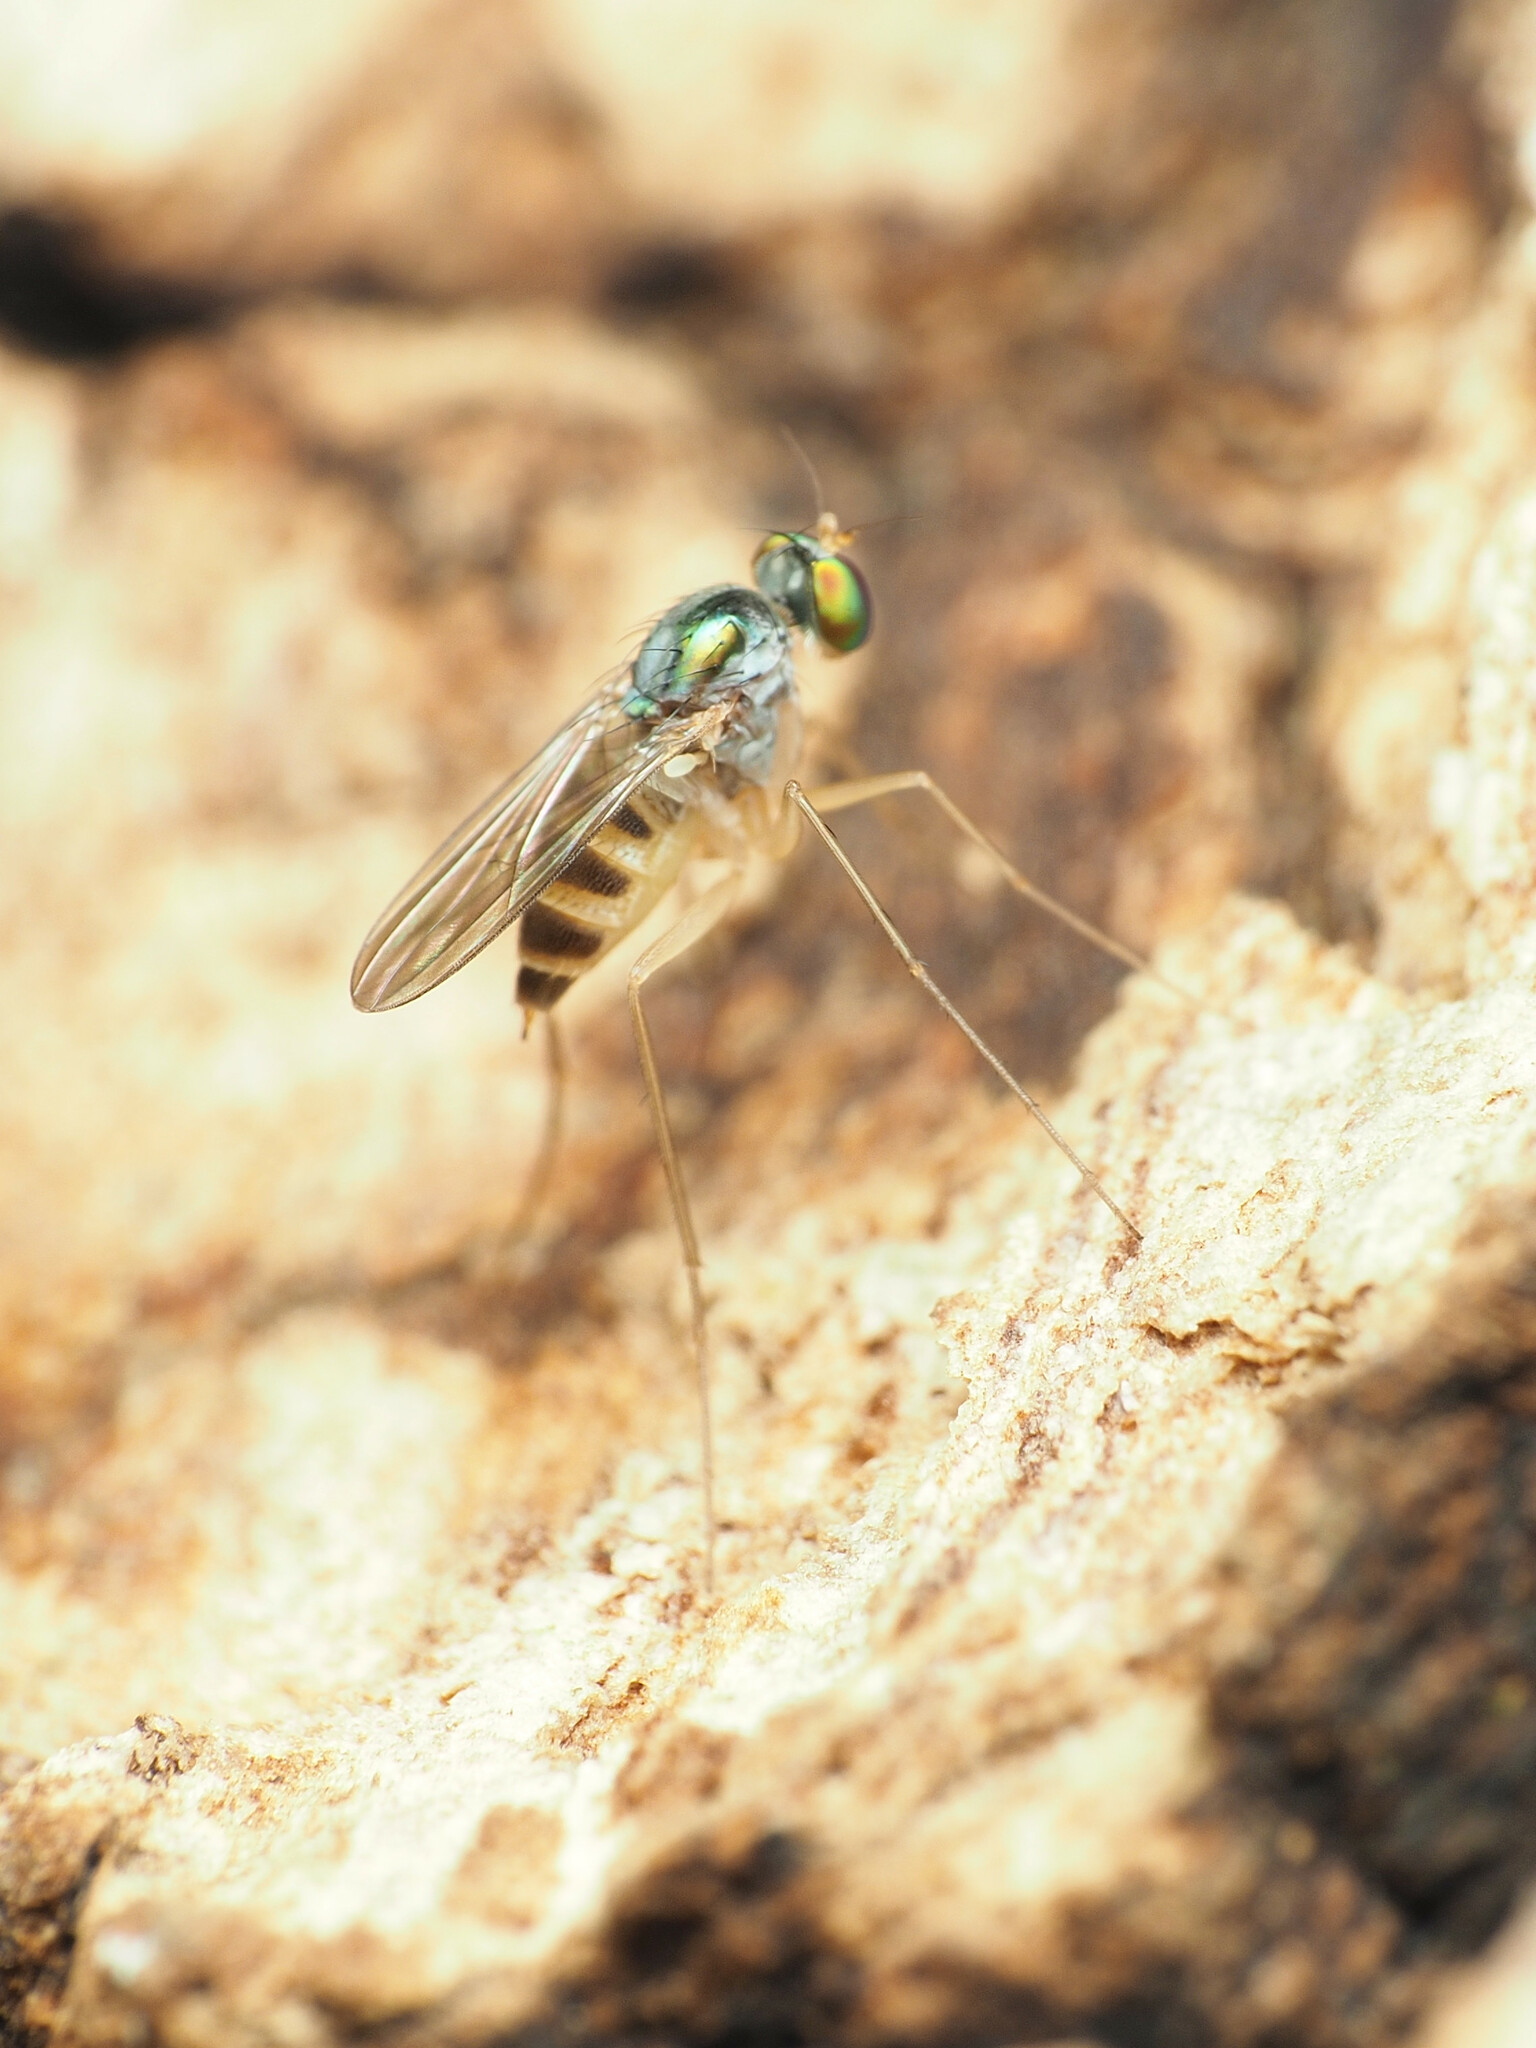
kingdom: Animalia
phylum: Arthropoda
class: Insecta
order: Diptera
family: Dolichopodidae
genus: Neurigona
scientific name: Neurigona deformis
